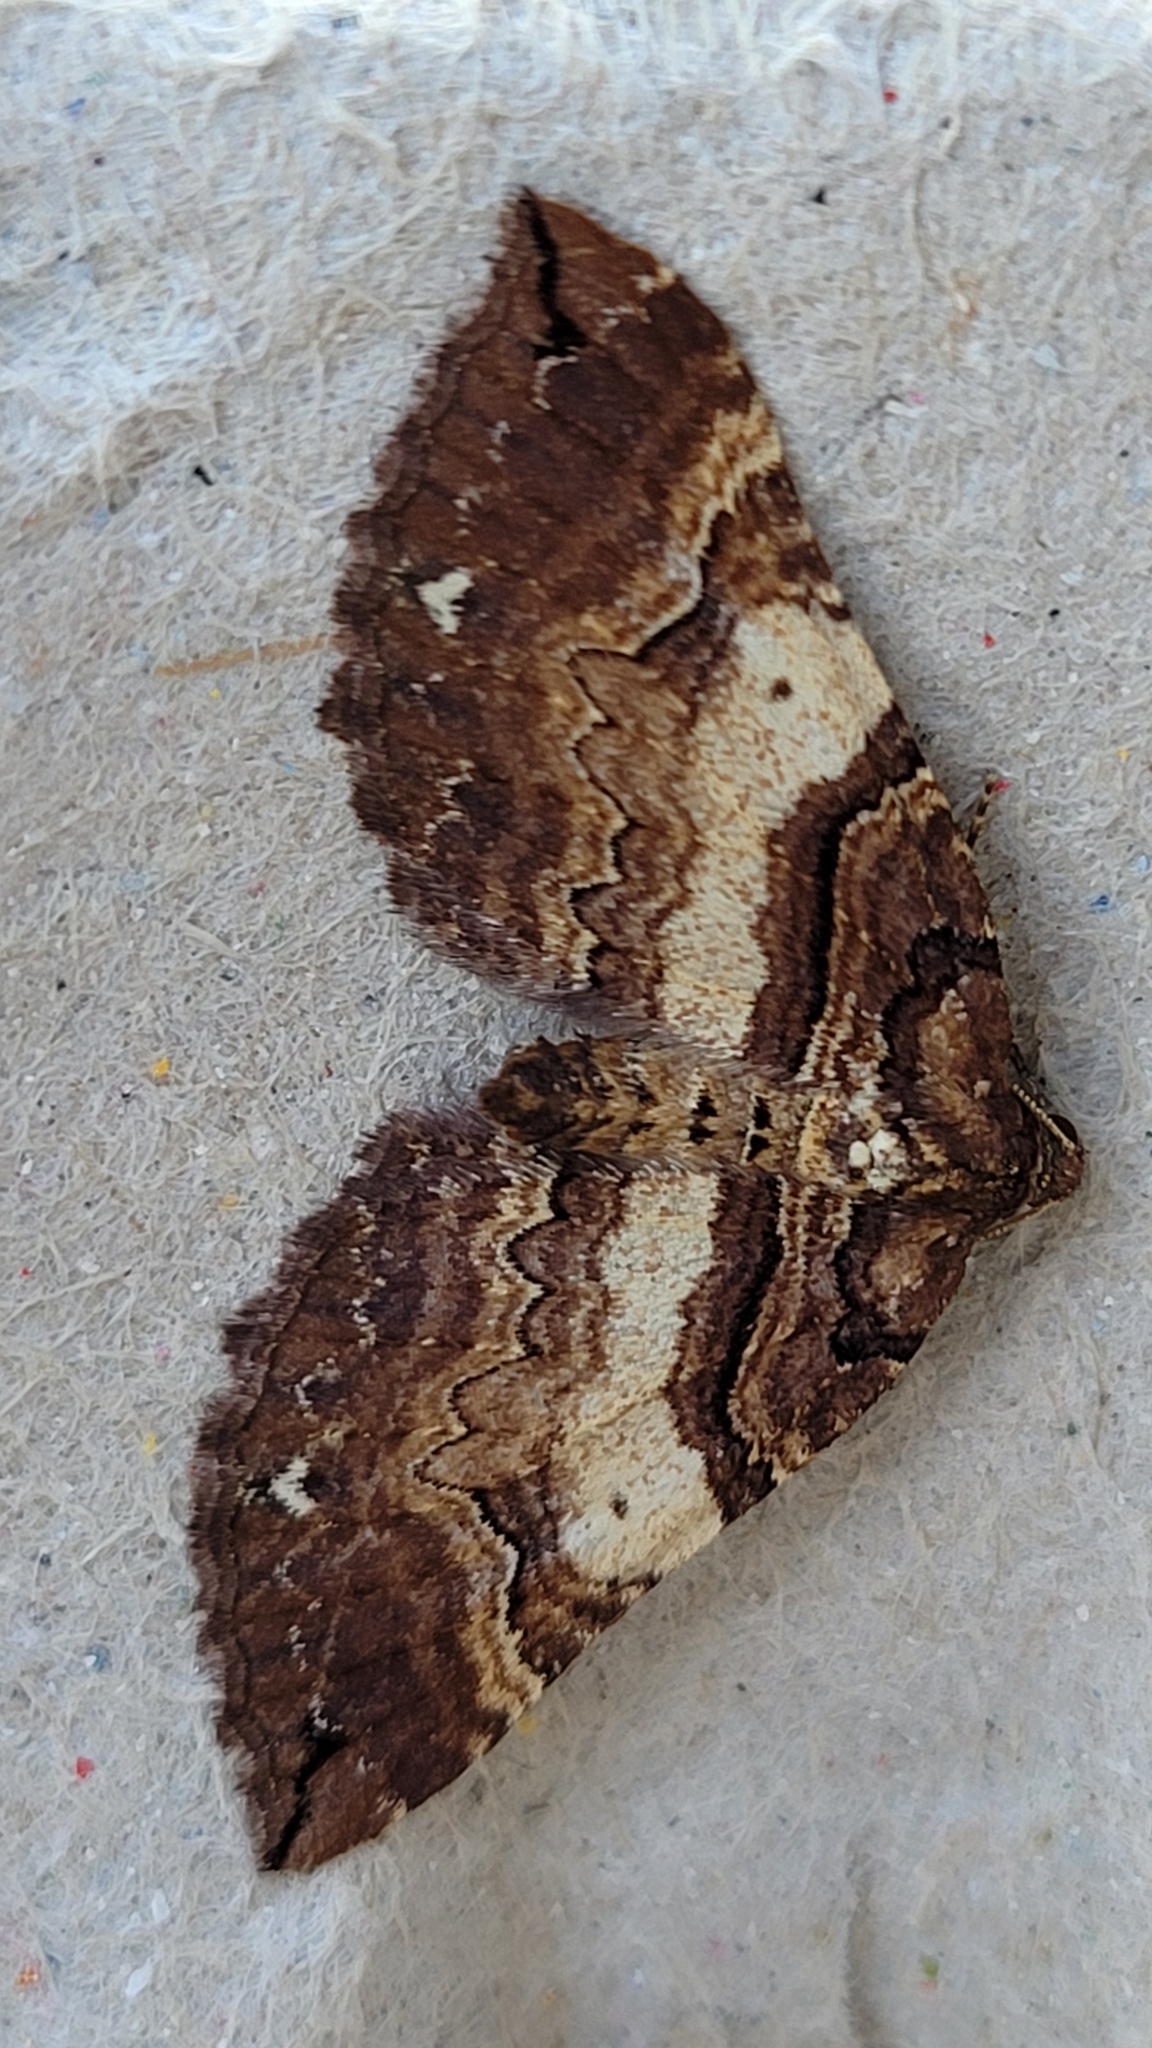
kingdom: Animalia
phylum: Arthropoda
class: Insecta
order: Lepidoptera
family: Geometridae
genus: Anticlea
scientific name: Anticlea badiata
